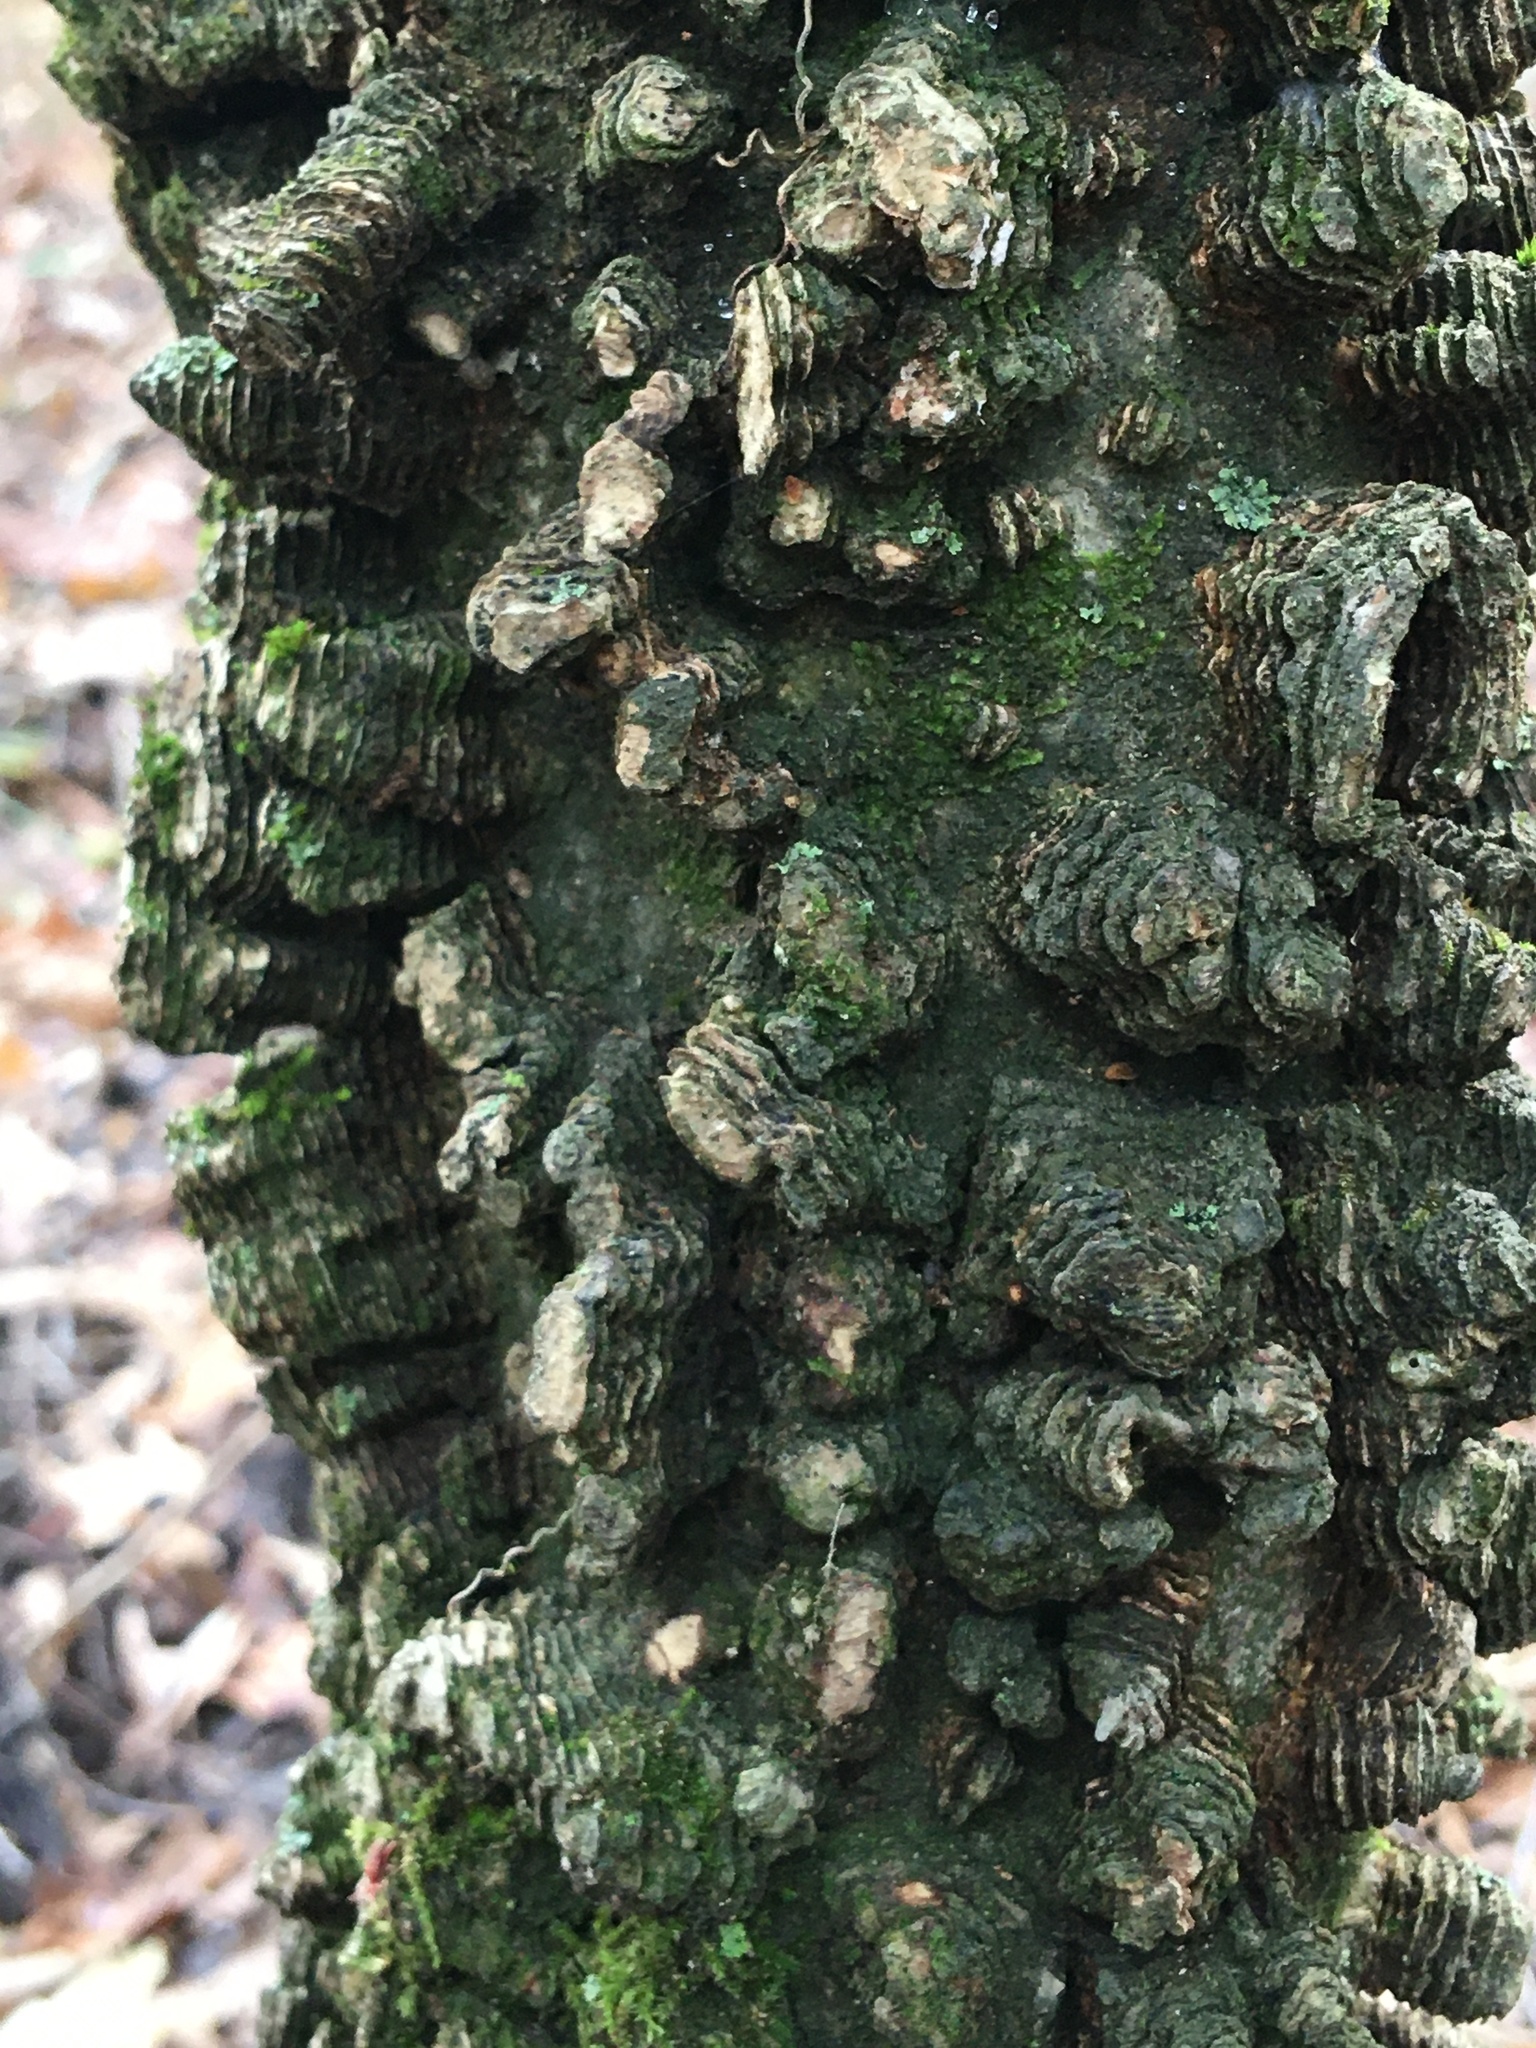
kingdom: Plantae
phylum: Tracheophyta
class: Magnoliopsida
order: Rosales
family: Cannabaceae
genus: Celtis
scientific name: Celtis occidentalis
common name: Common hackberry
